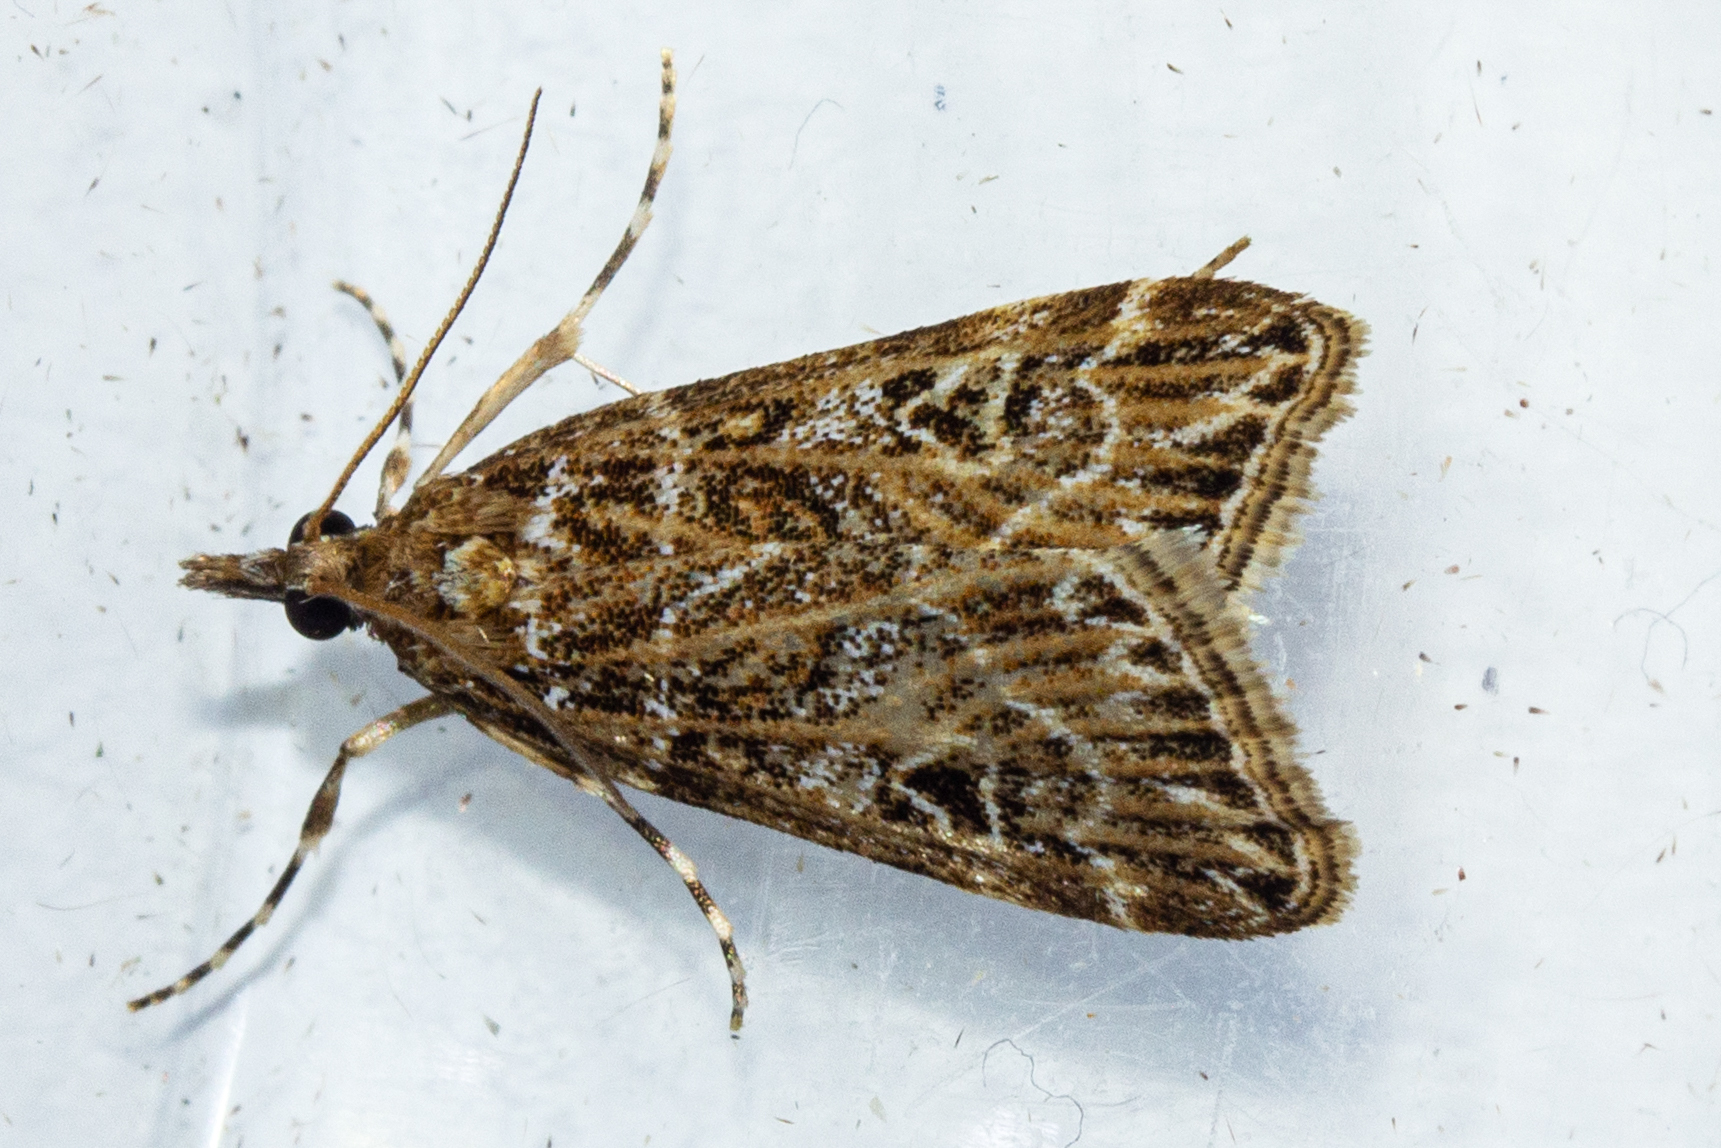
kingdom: Animalia
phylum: Arthropoda
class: Insecta
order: Lepidoptera
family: Crambidae
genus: Scoparia
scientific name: Scoparia triscelis
